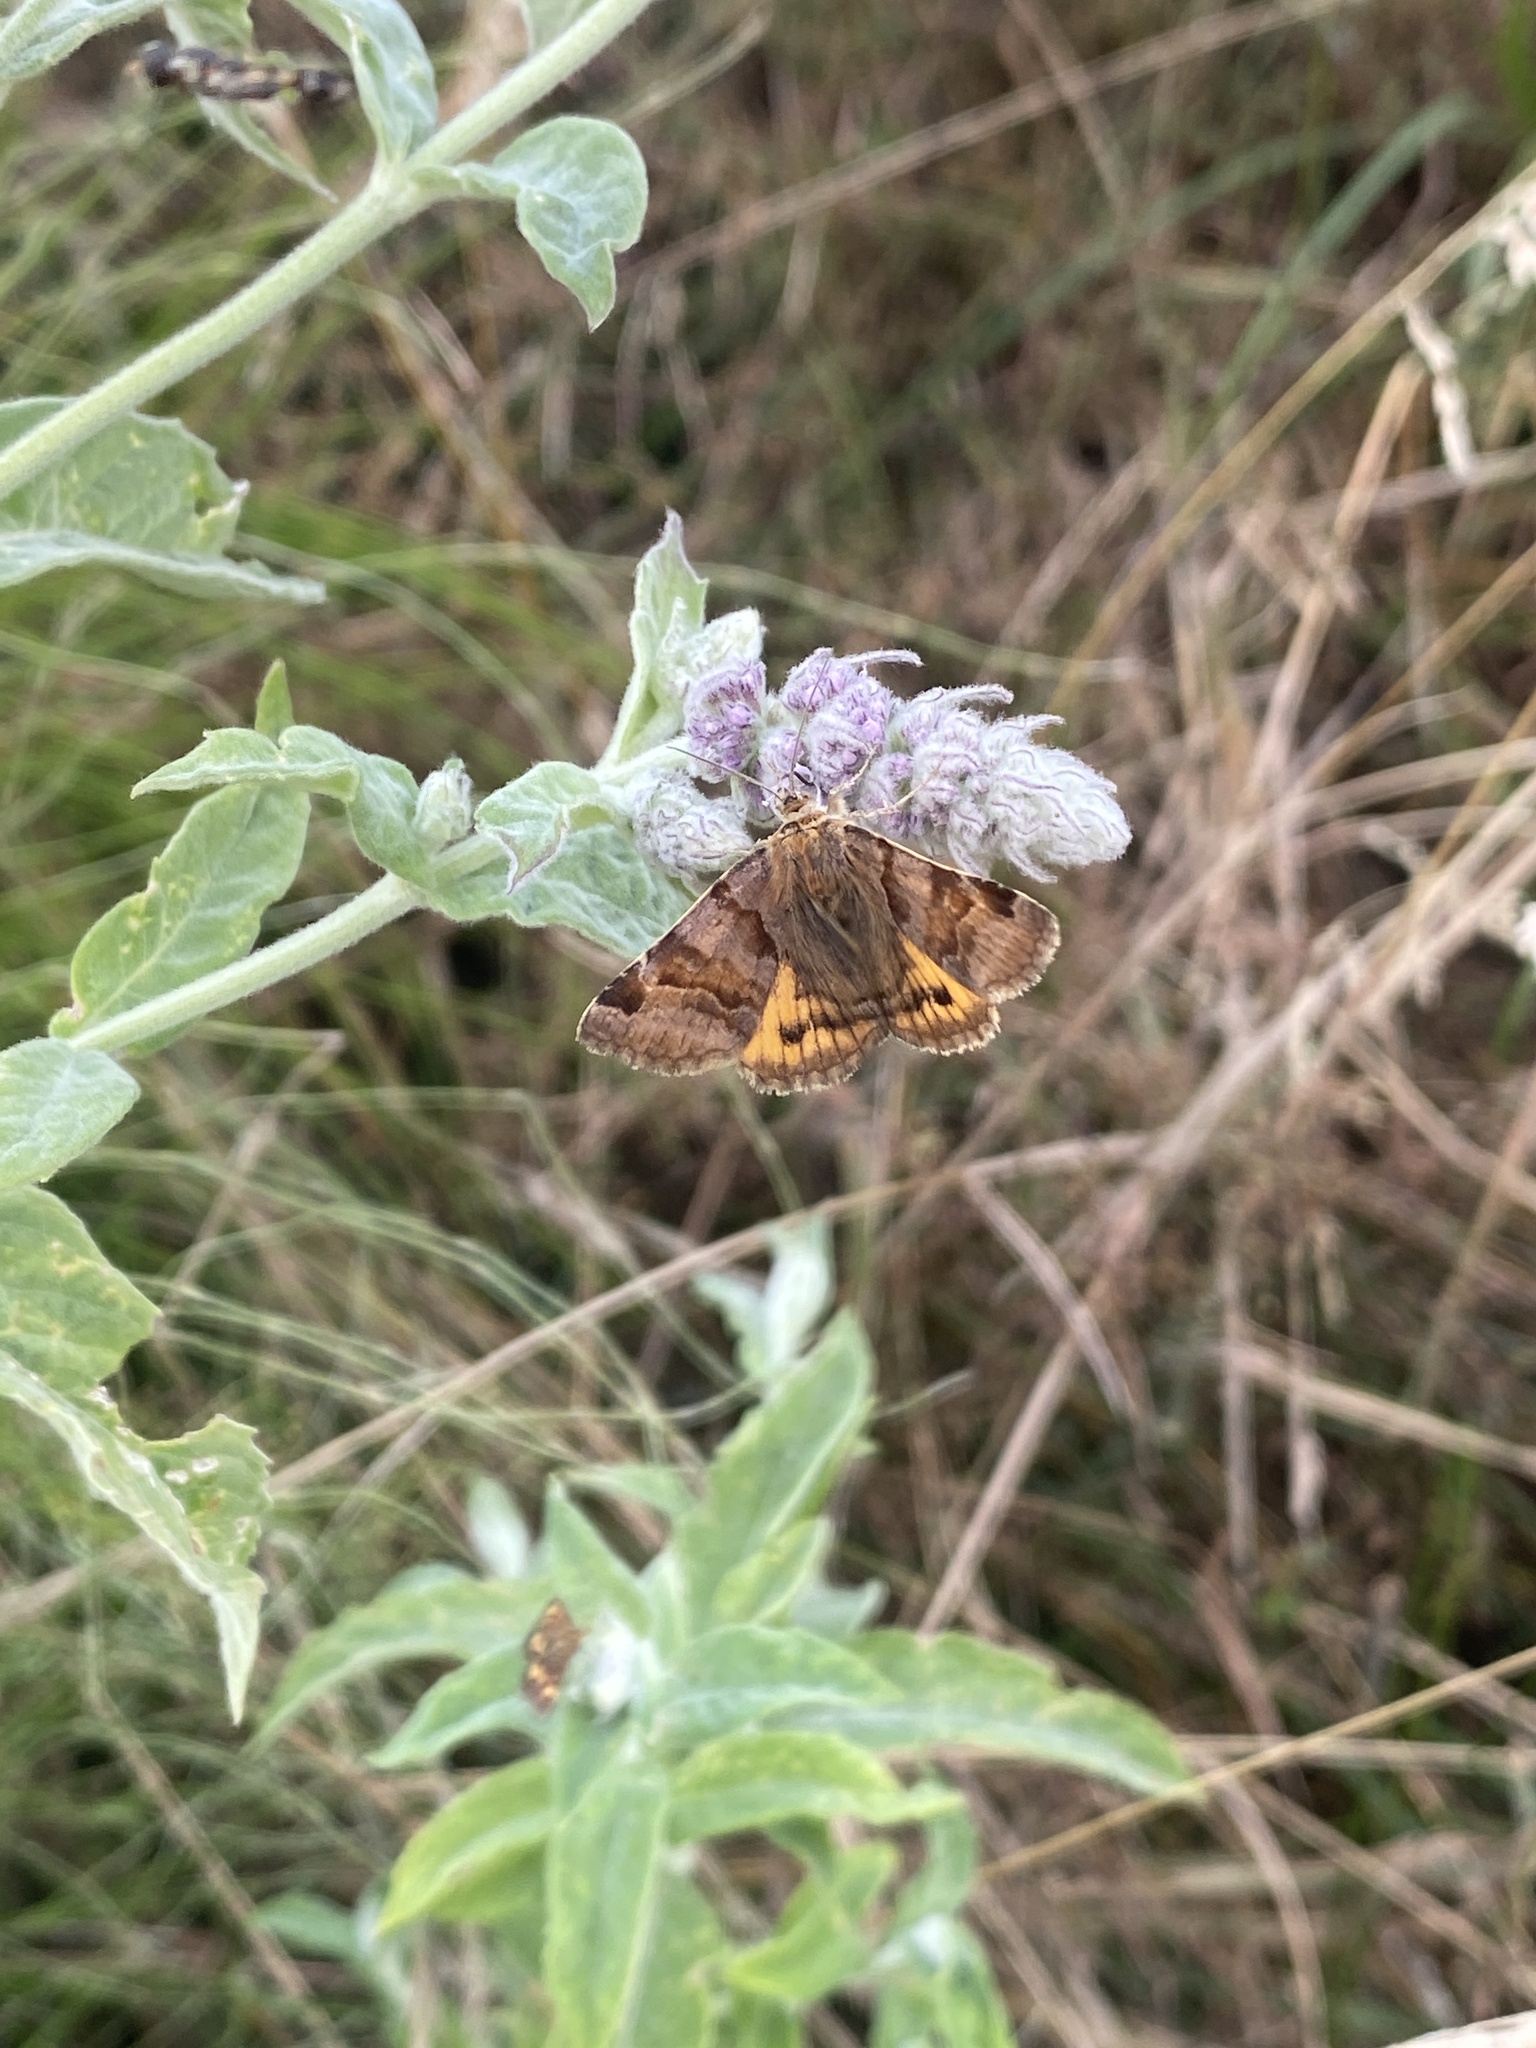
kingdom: Animalia
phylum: Arthropoda
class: Insecta
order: Lepidoptera
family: Erebidae
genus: Euclidia
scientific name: Euclidia glyphica
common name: Burnet companion
